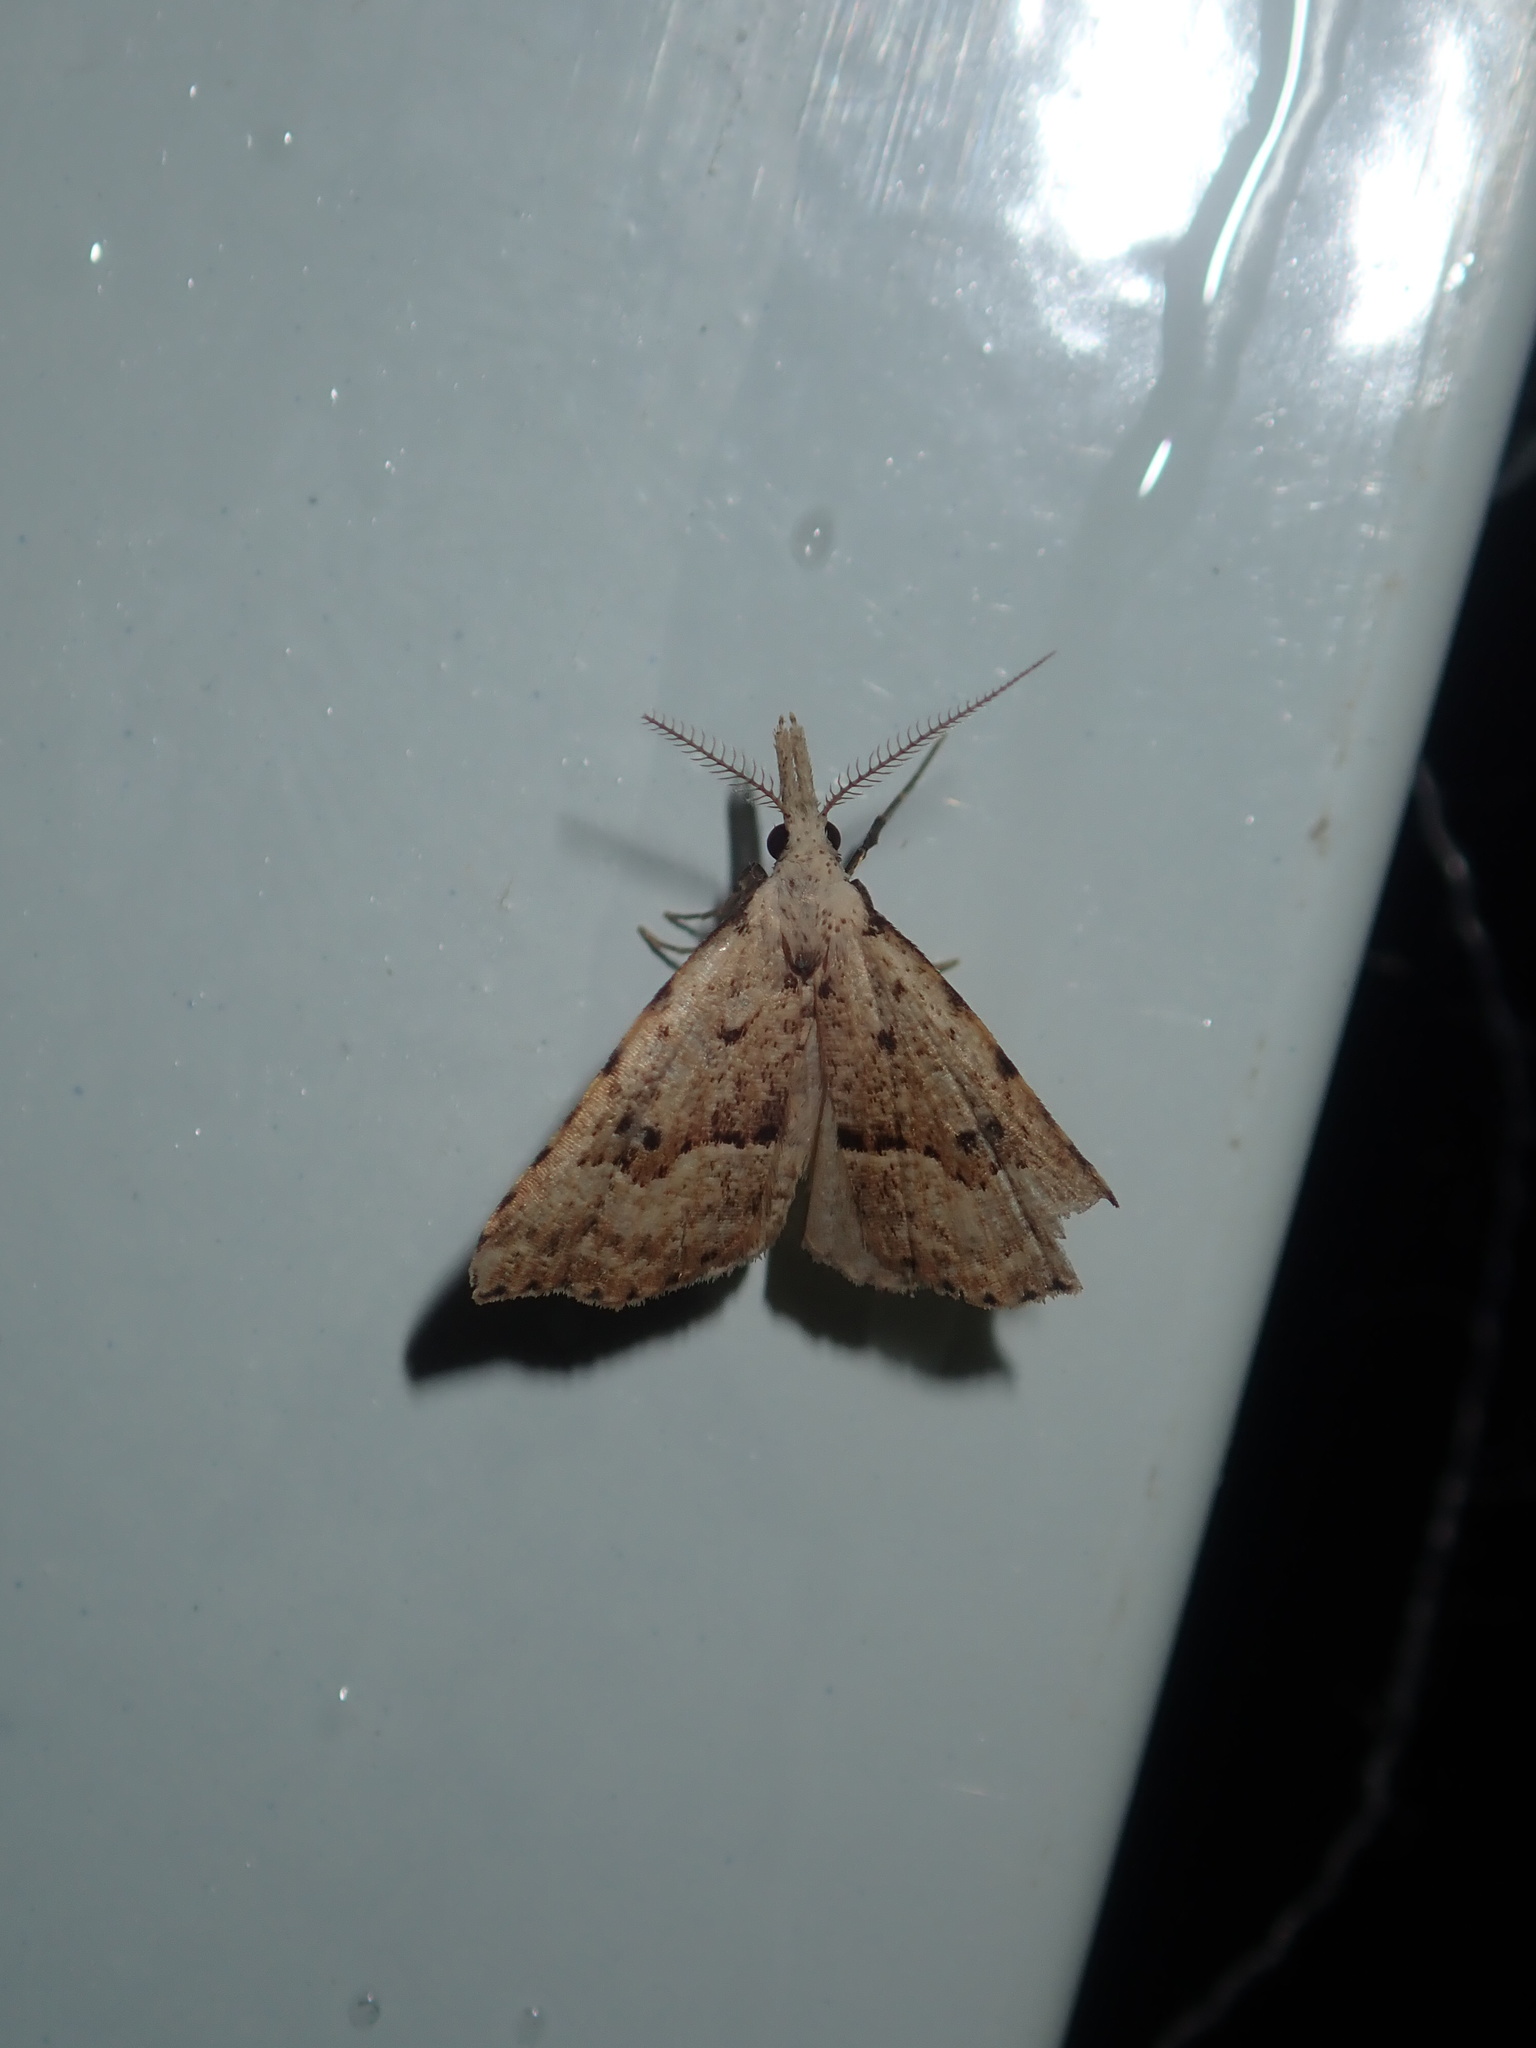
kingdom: Animalia
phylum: Arthropoda
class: Insecta
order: Lepidoptera
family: Erebidae
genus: Trigonistis
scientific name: Trigonistis asthenopa
